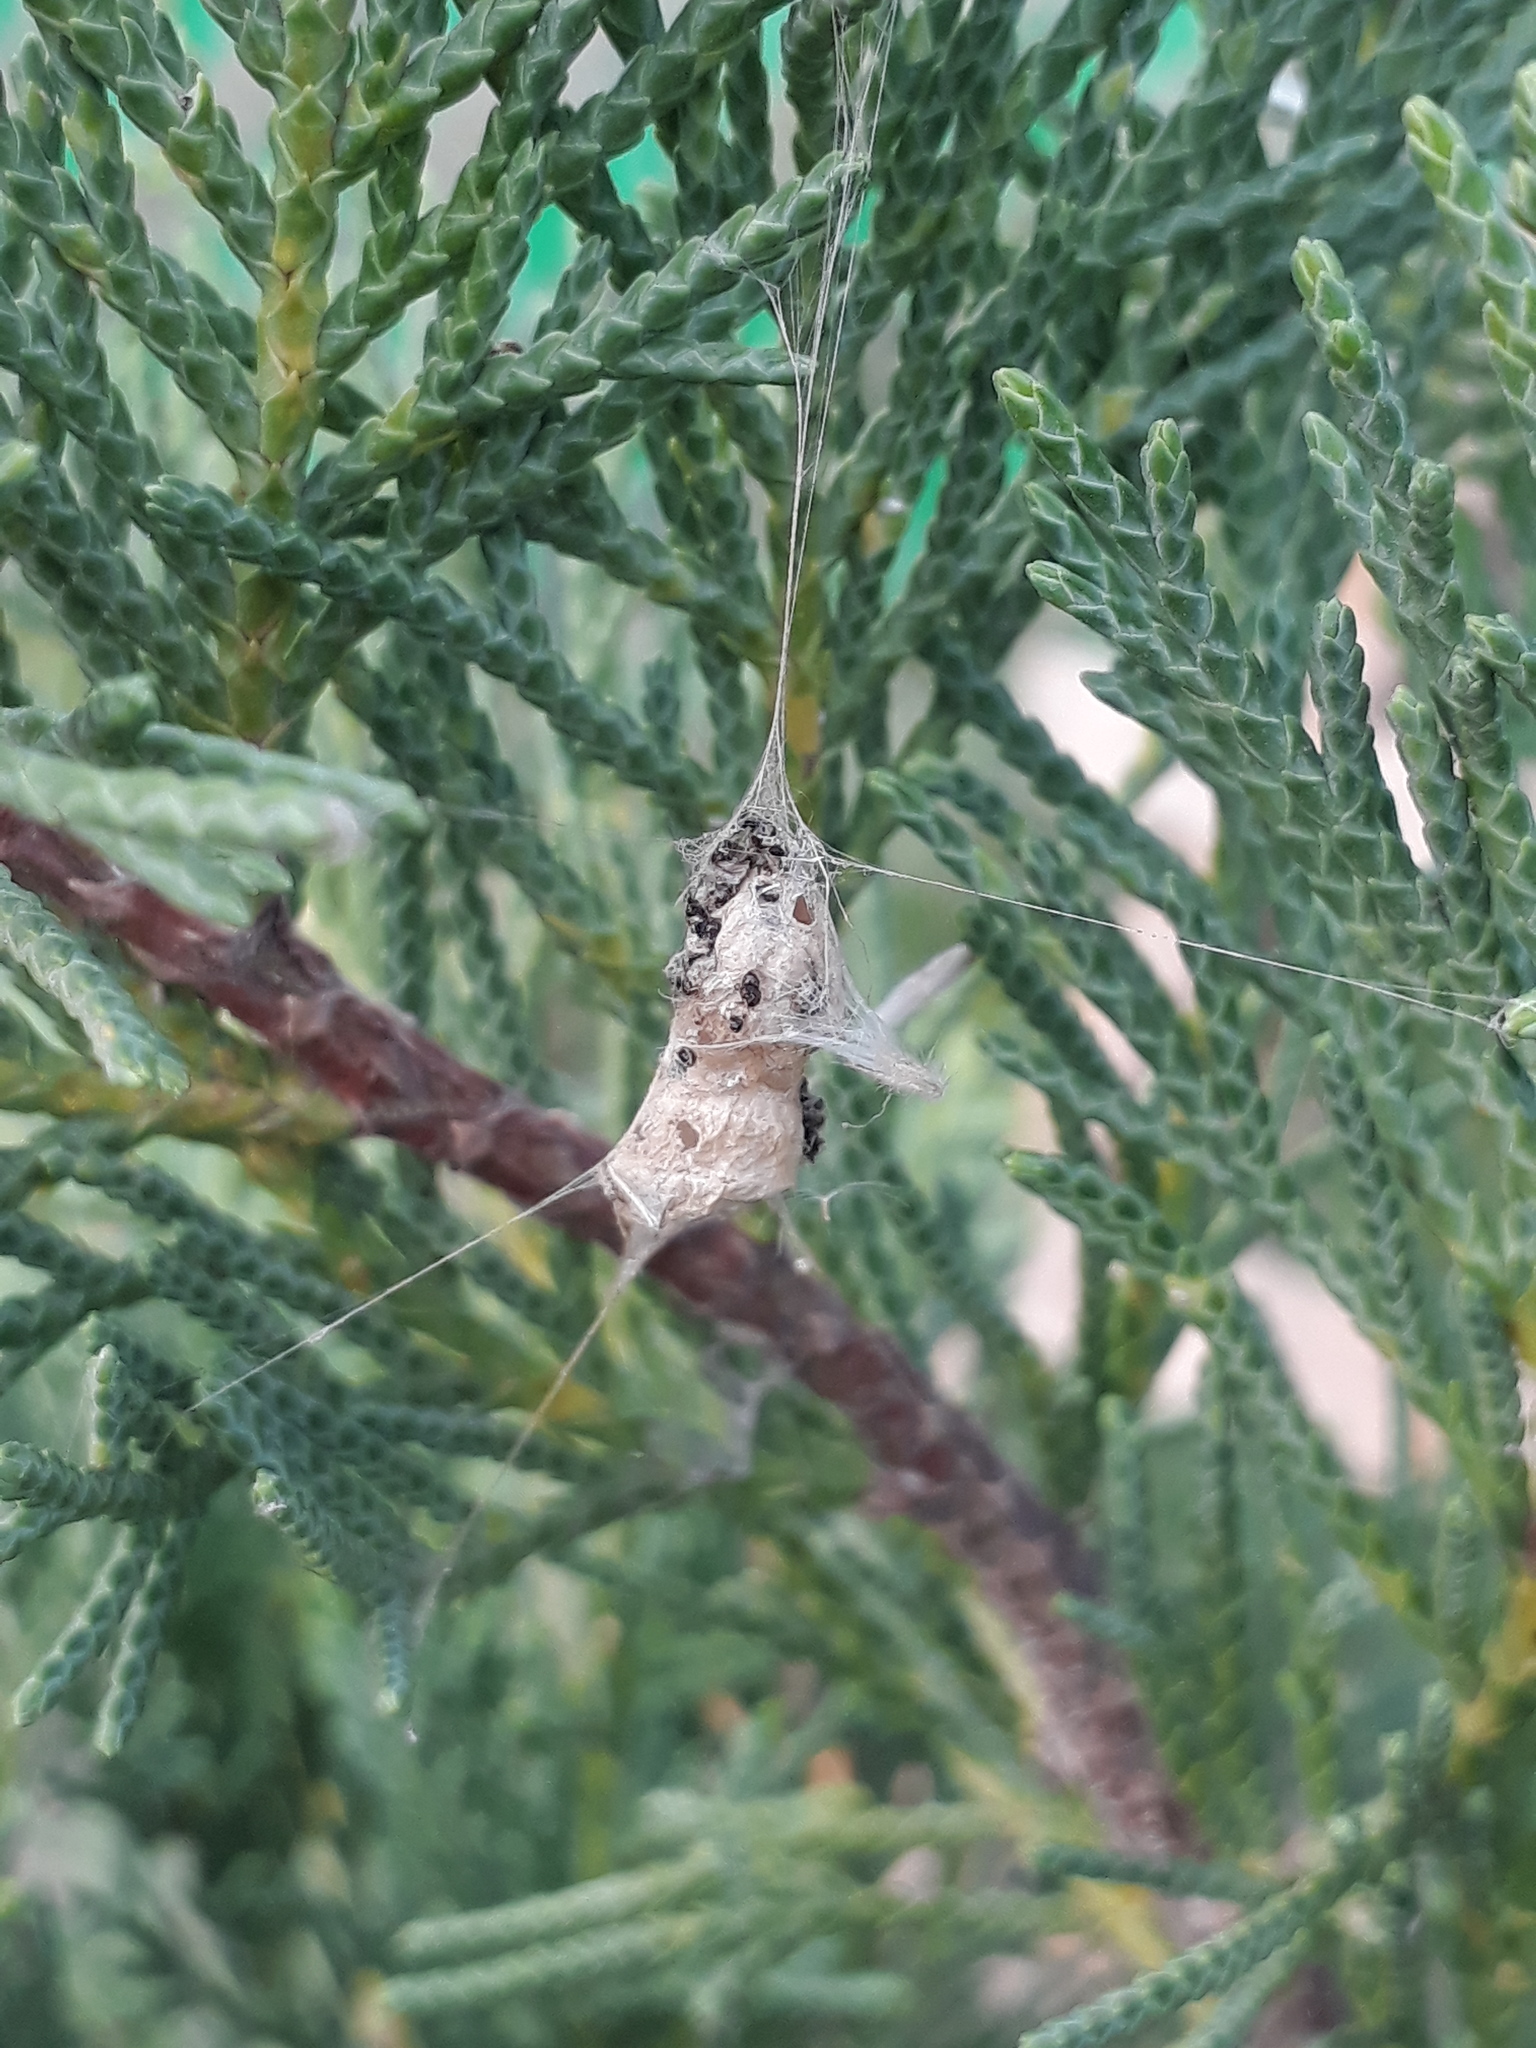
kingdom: Animalia
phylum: Arthropoda
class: Arachnida
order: Araneae
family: Araneidae
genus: Metepeira
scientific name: Metepeira
